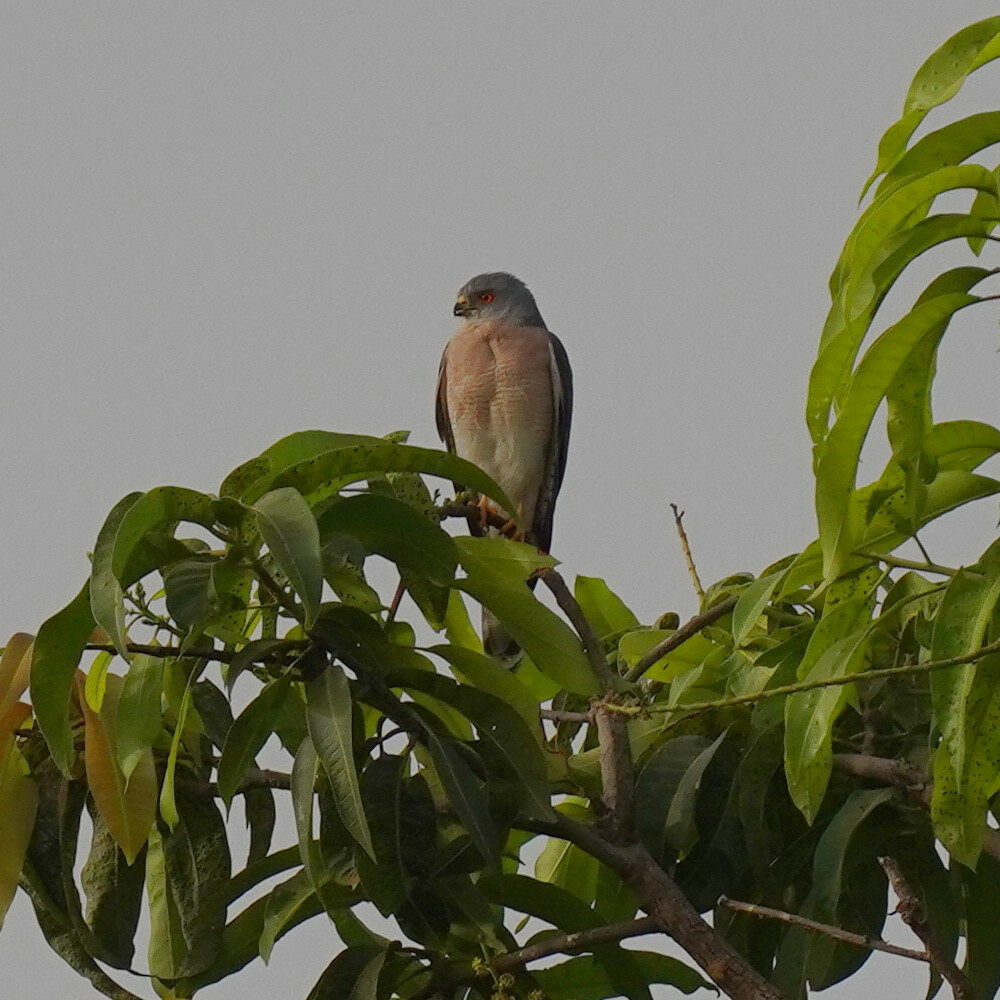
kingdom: Animalia
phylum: Chordata
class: Aves
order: Accipitriformes
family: Accipitridae
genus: Accipiter
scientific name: Accipiter badius
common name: Shikra
